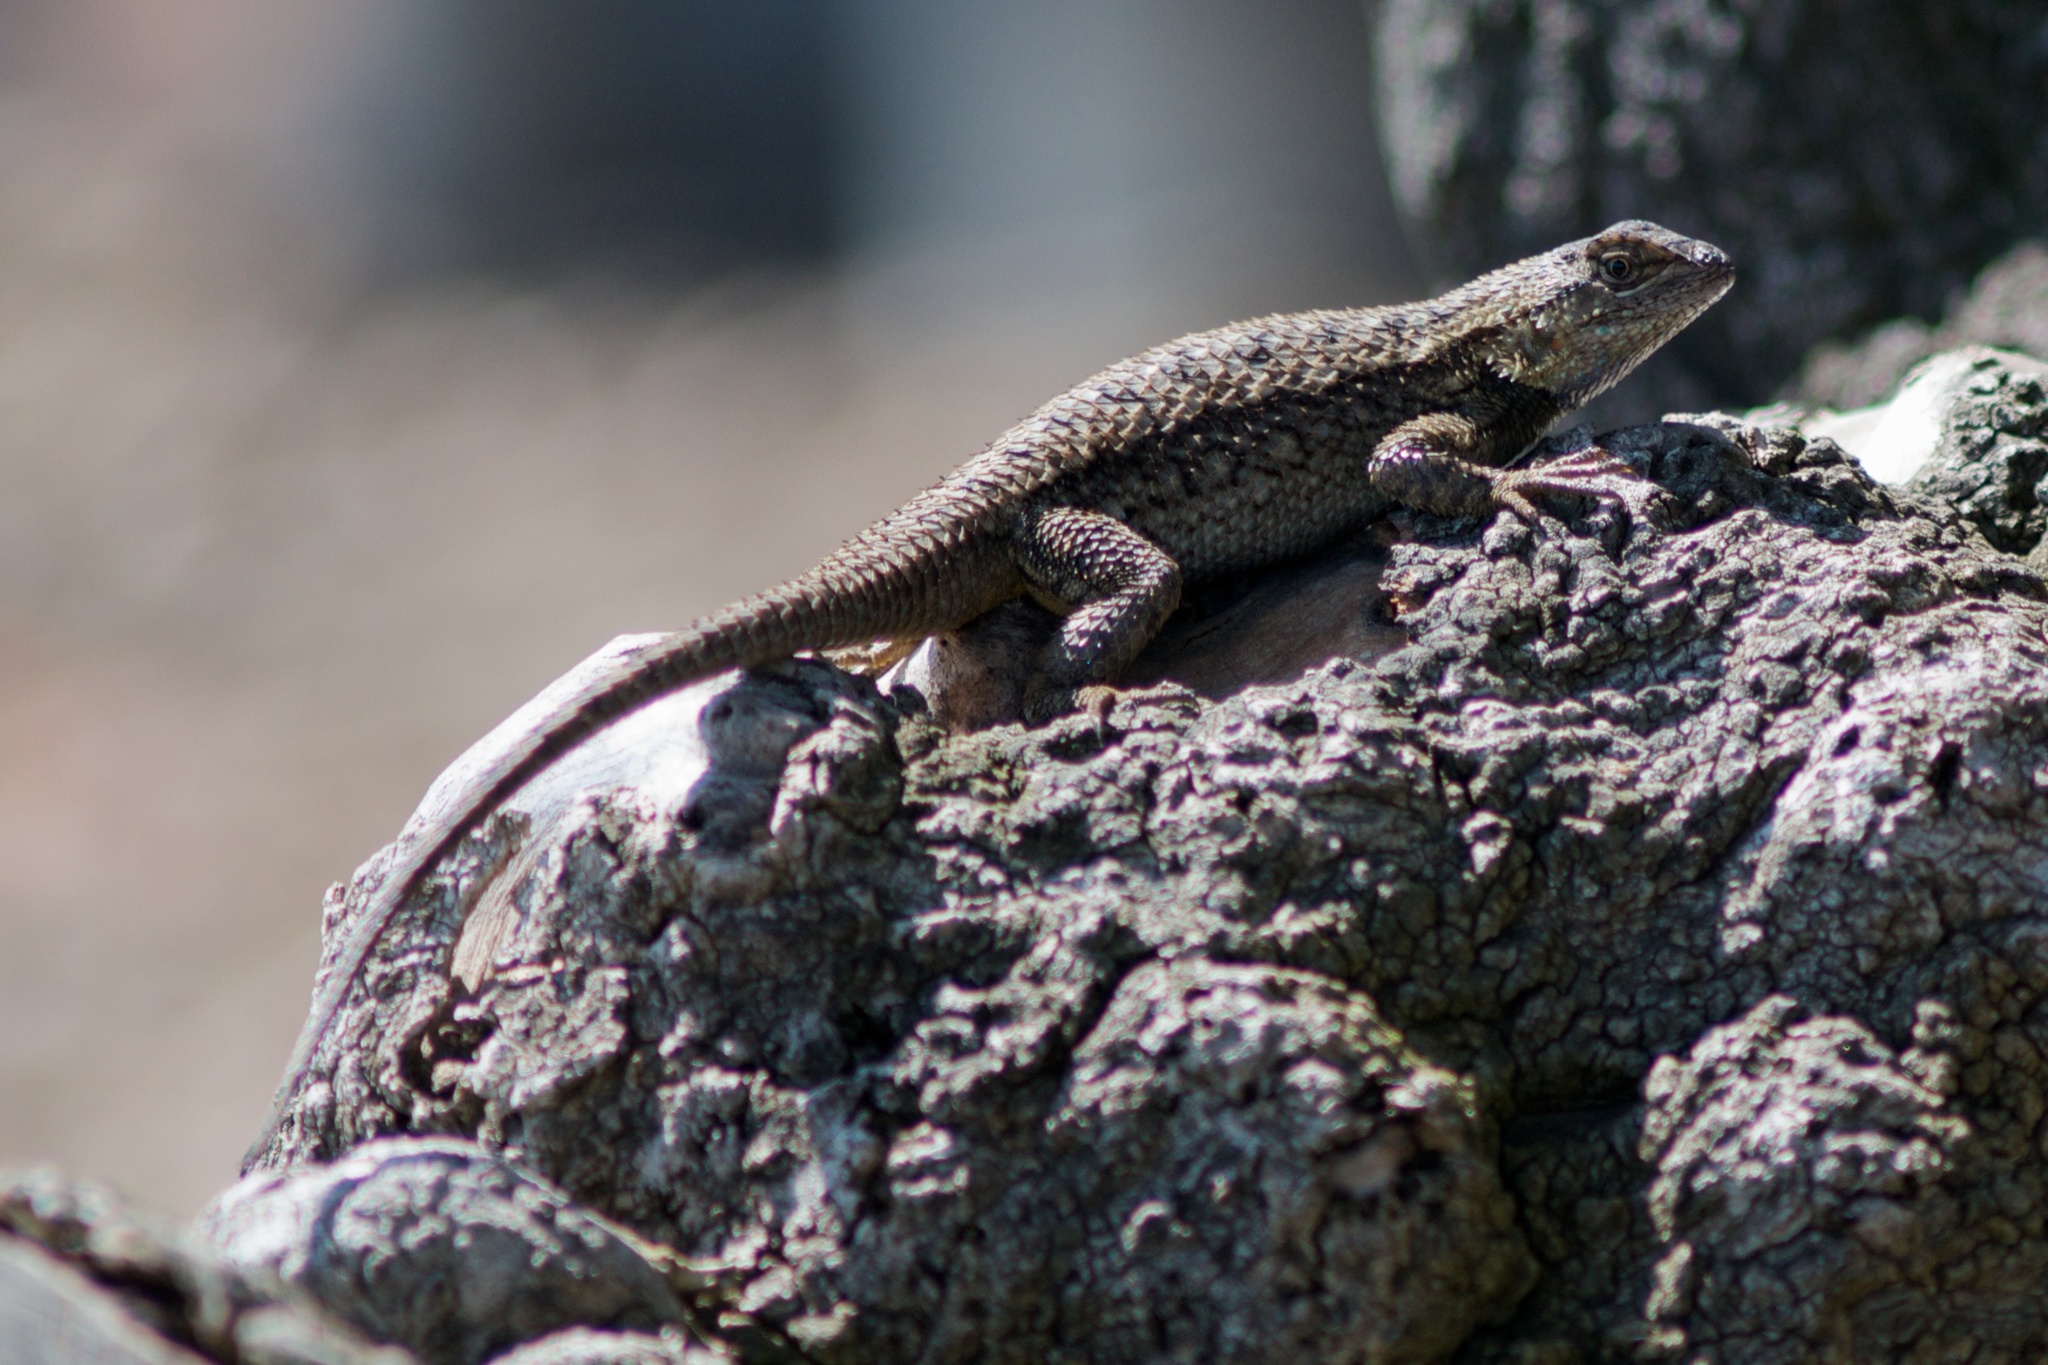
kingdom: Animalia
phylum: Chordata
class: Squamata
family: Phrynosomatidae
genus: Sceloporus
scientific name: Sceloporus occidentalis
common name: Western fence lizard
